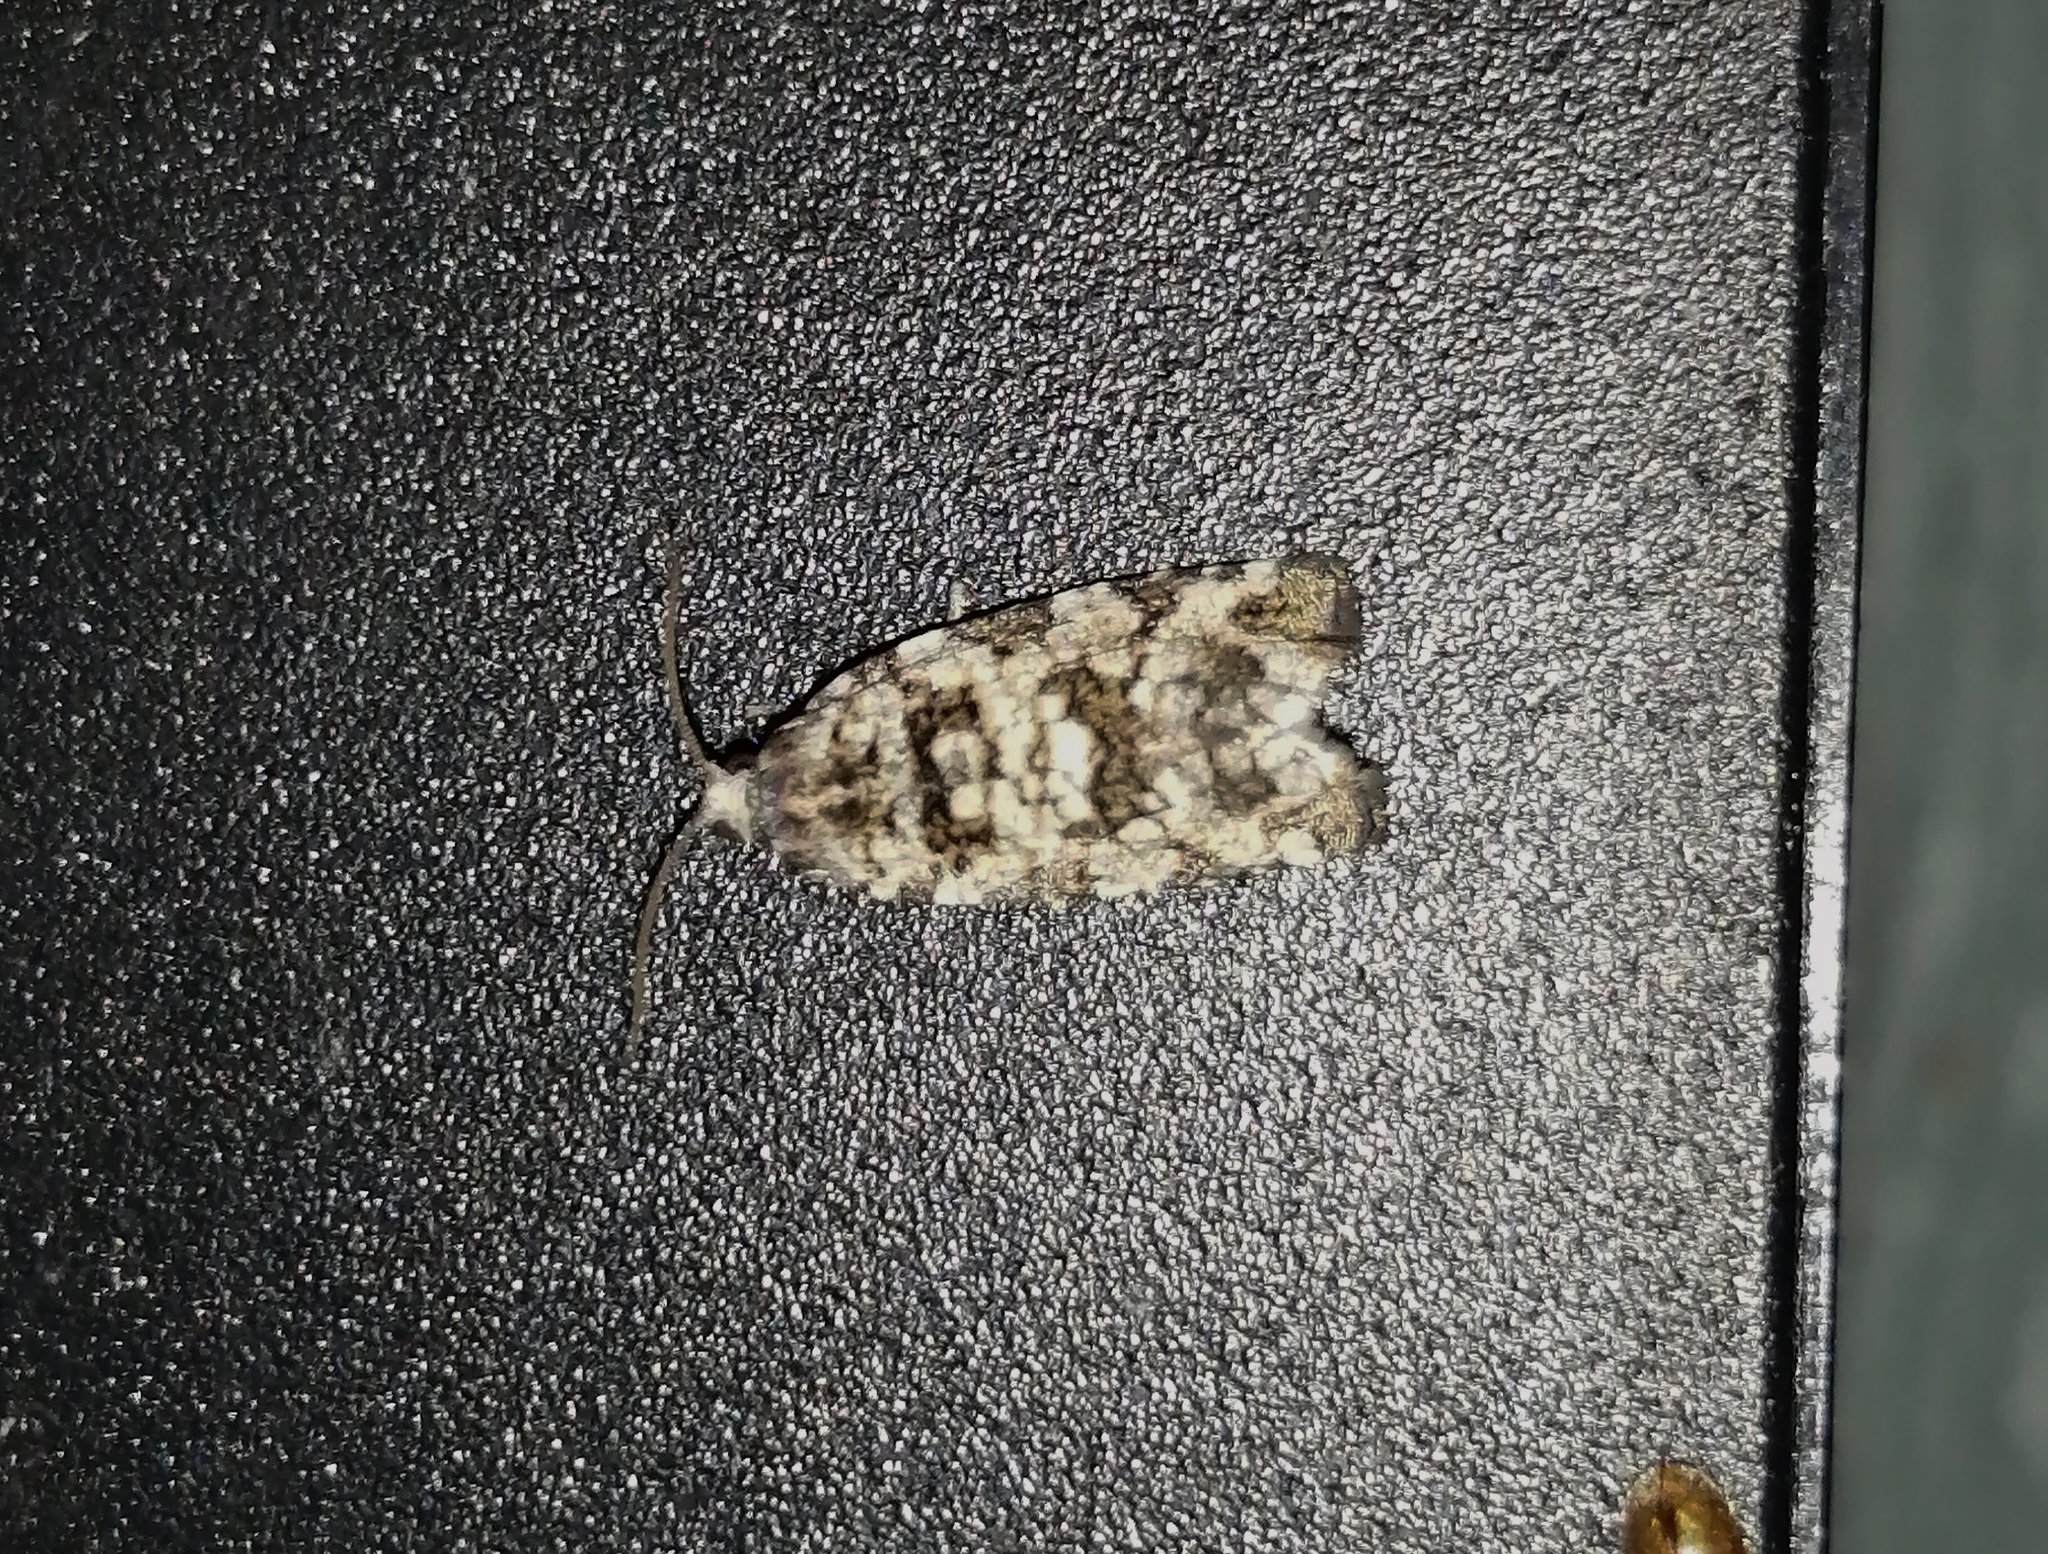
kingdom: Animalia
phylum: Arthropoda
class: Insecta
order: Lepidoptera
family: Tortricidae
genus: Archips
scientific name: Archips packardiana
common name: Spring spruce needle moth
